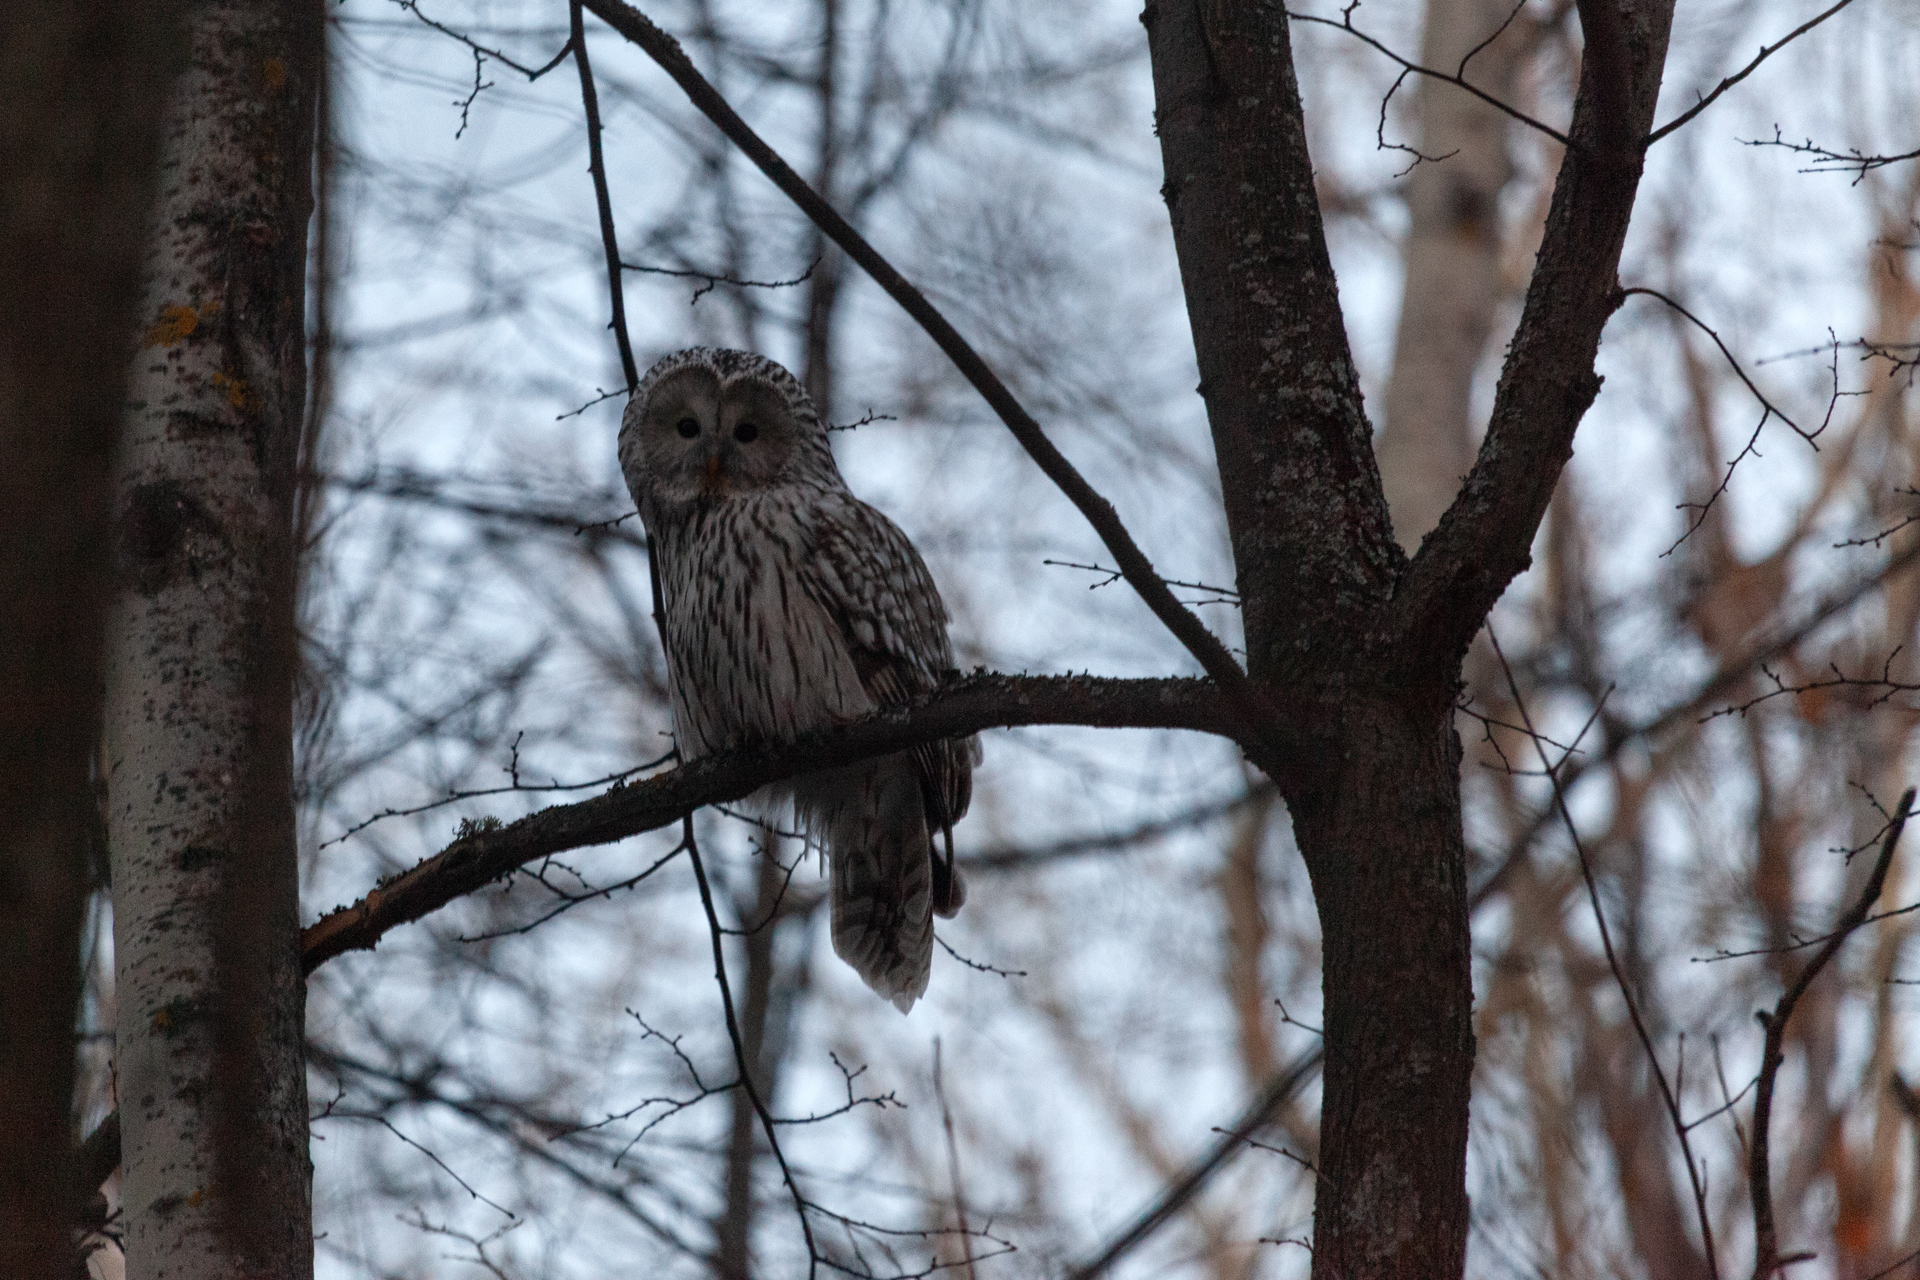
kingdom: Animalia
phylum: Chordata
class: Aves
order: Strigiformes
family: Strigidae
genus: Strix
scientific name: Strix uralensis
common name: Ural owl
